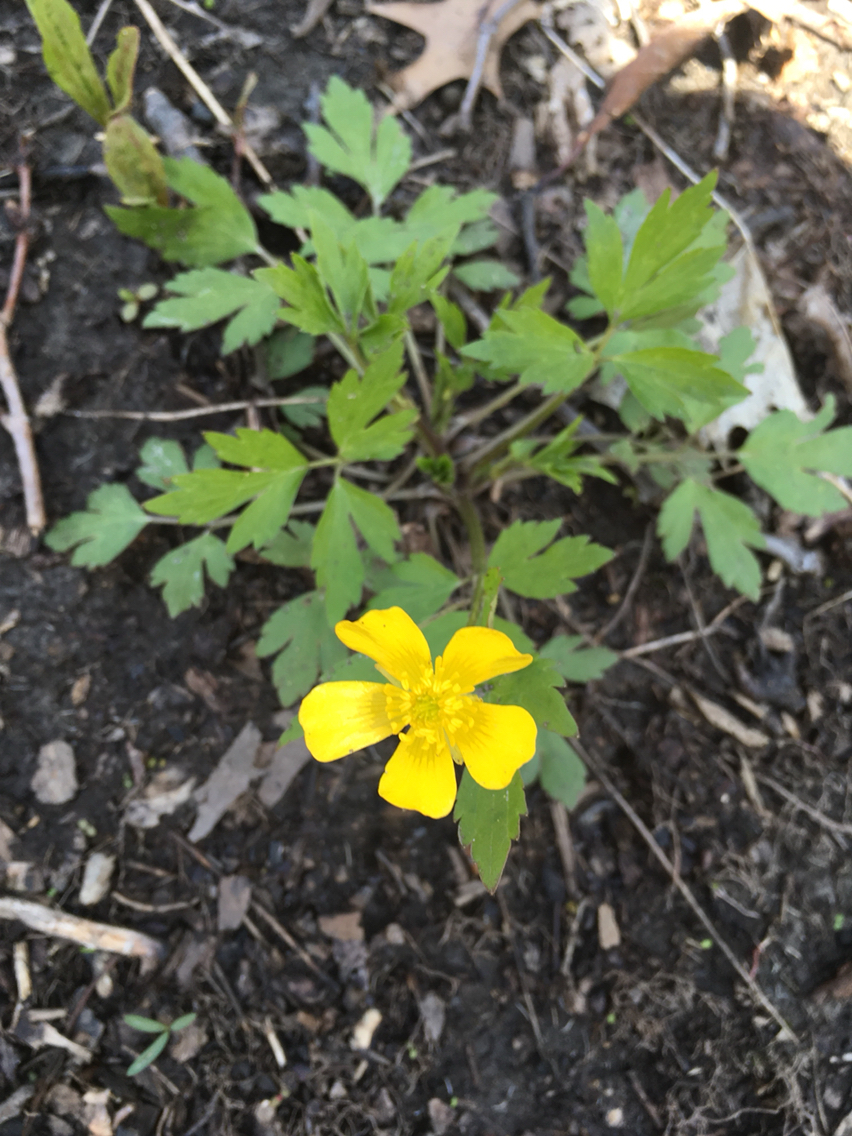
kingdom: Plantae
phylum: Tracheophyta
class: Magnoliopsida
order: Ranunculales
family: Ranunculaceae
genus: Ranunculus
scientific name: Ranunculus hispidus
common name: Bristly buttercup
